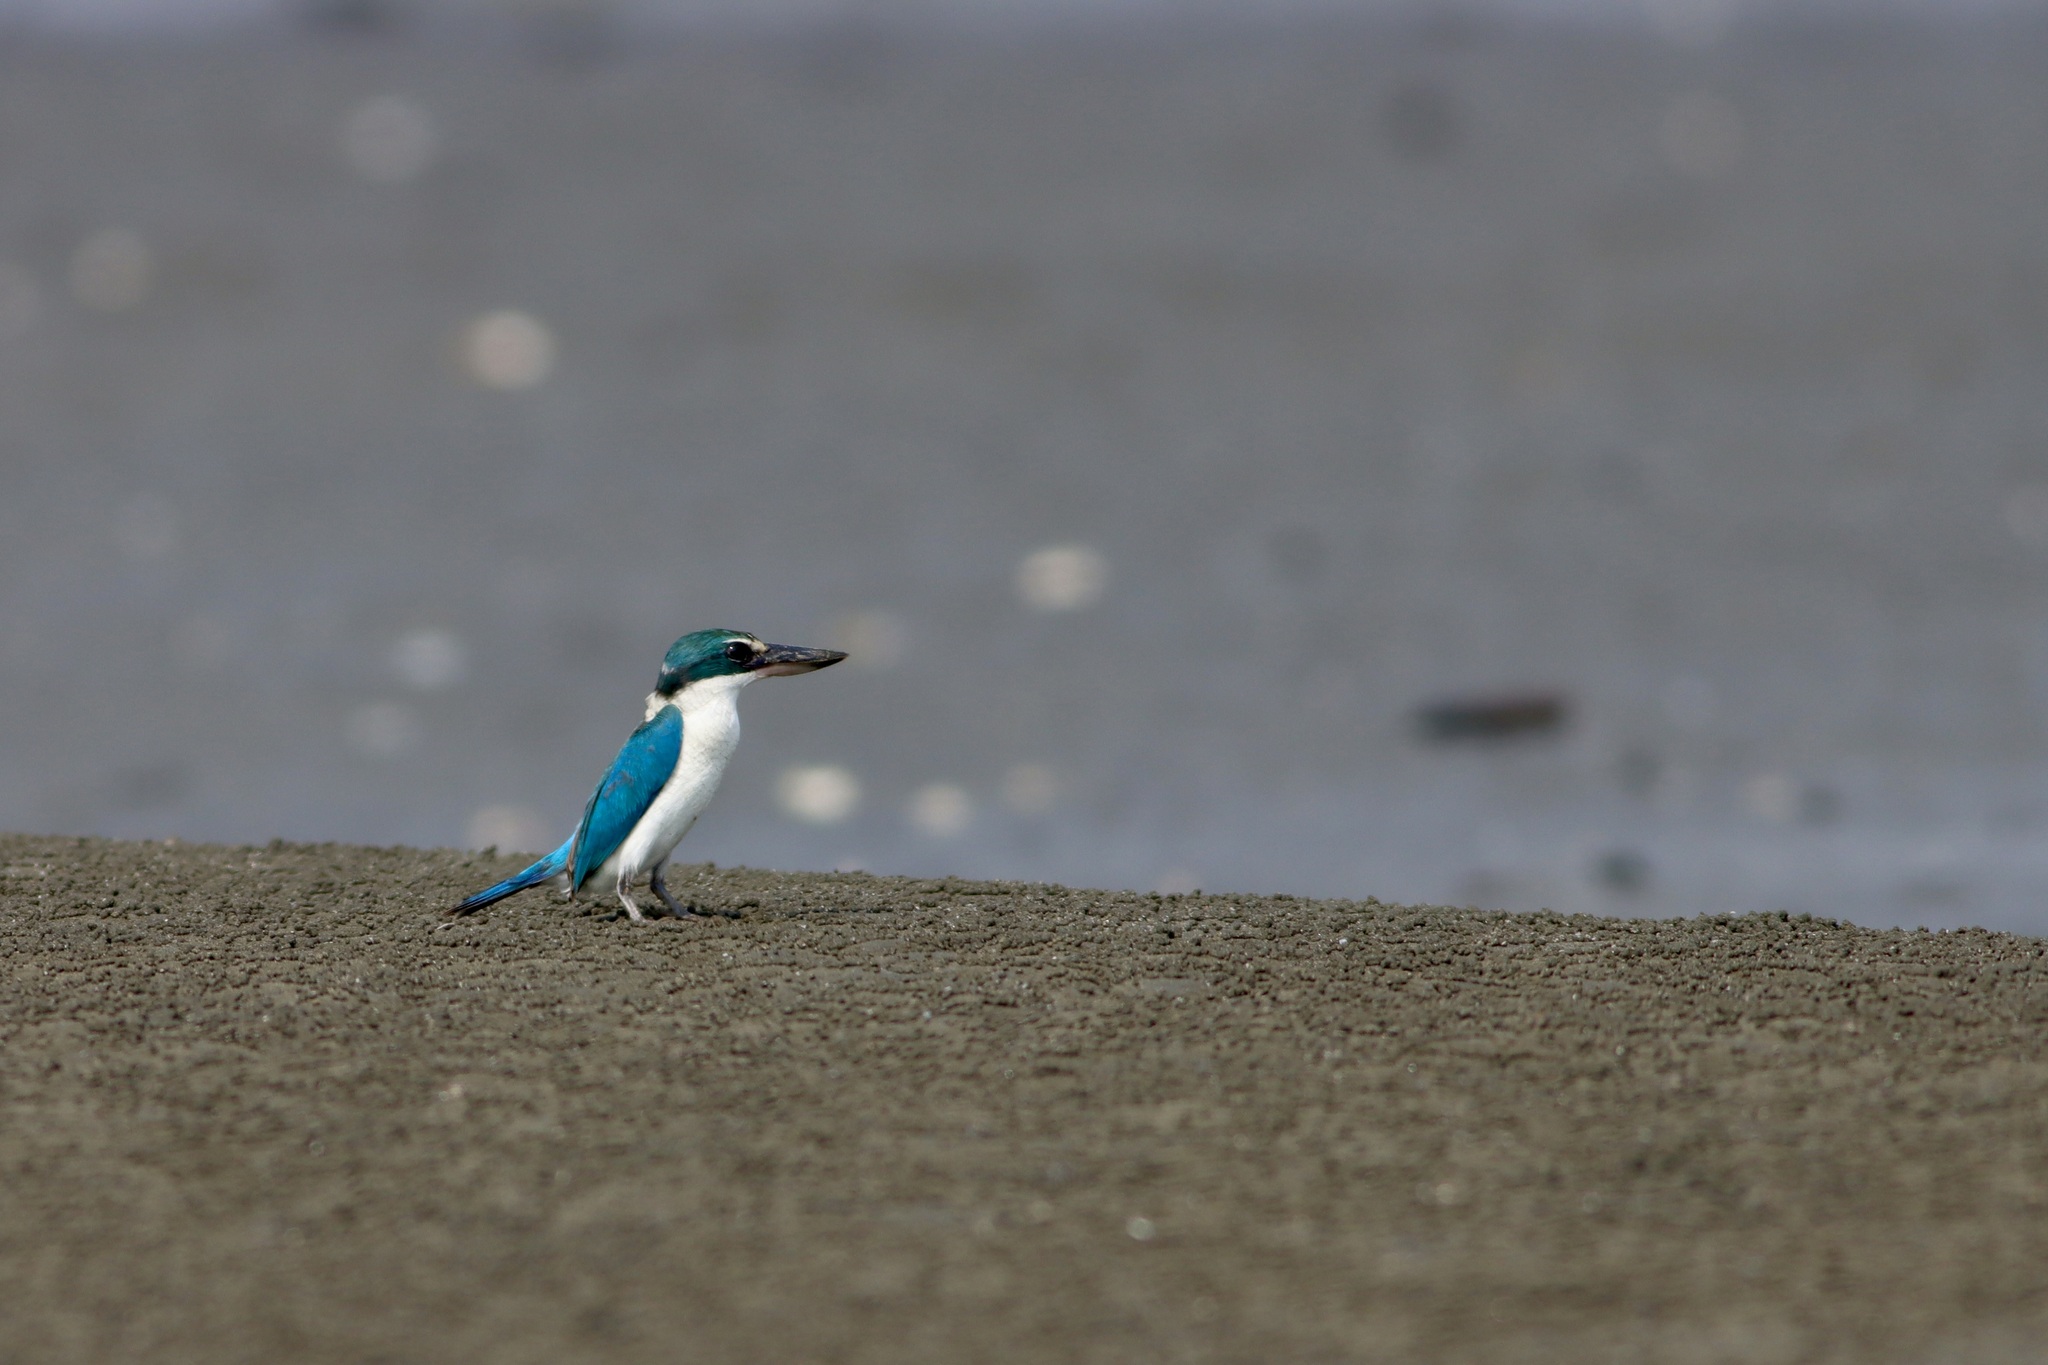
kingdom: Animalia
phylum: Chordata
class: Aves
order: Coraciiformes
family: Alcedinidae
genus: Todiramphus
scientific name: Todiramphus chloris
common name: Collared kingfisher
